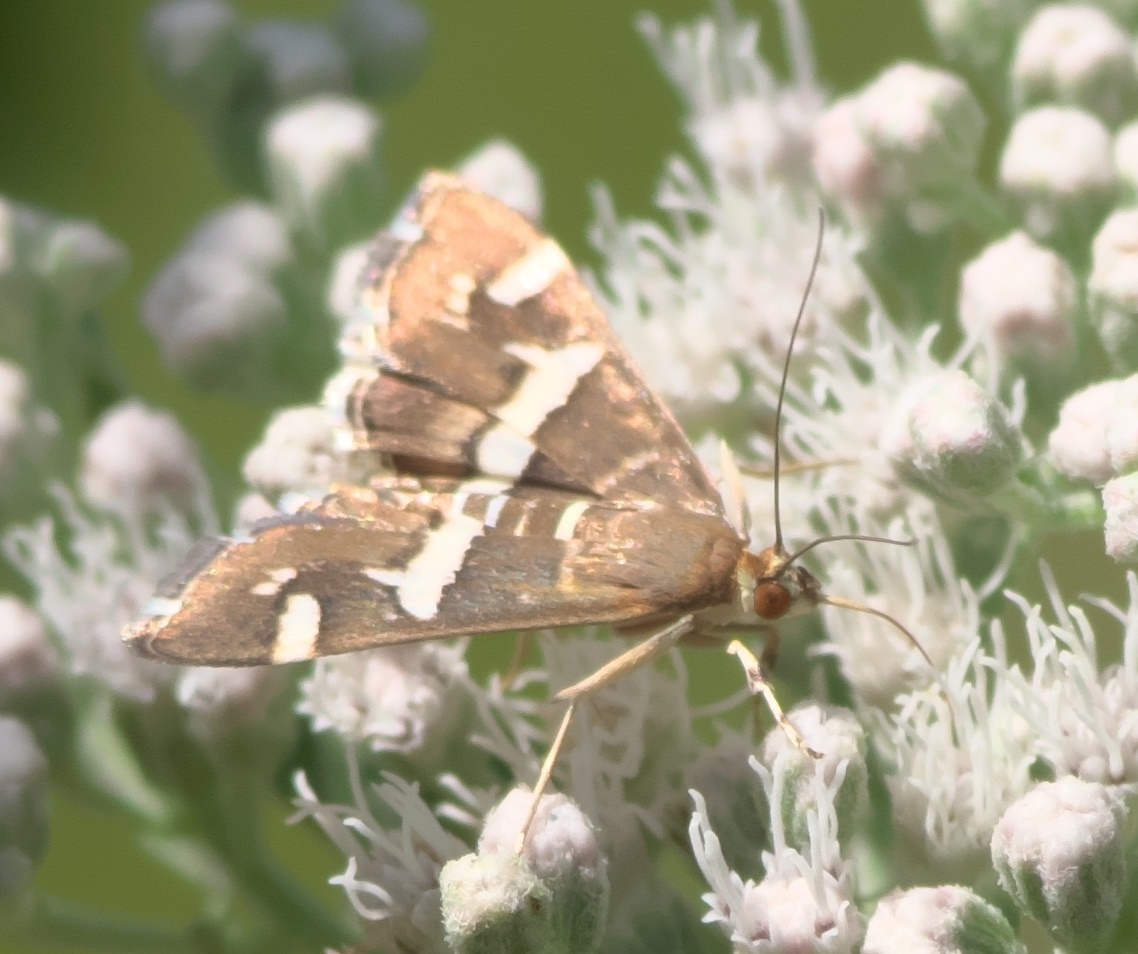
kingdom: Animalia
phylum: Arthropoda
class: Insecta
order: Lepidoptera
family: Crambidae
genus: Spoladea
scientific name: Spoladea recurvalis
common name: Beet webworm moth
